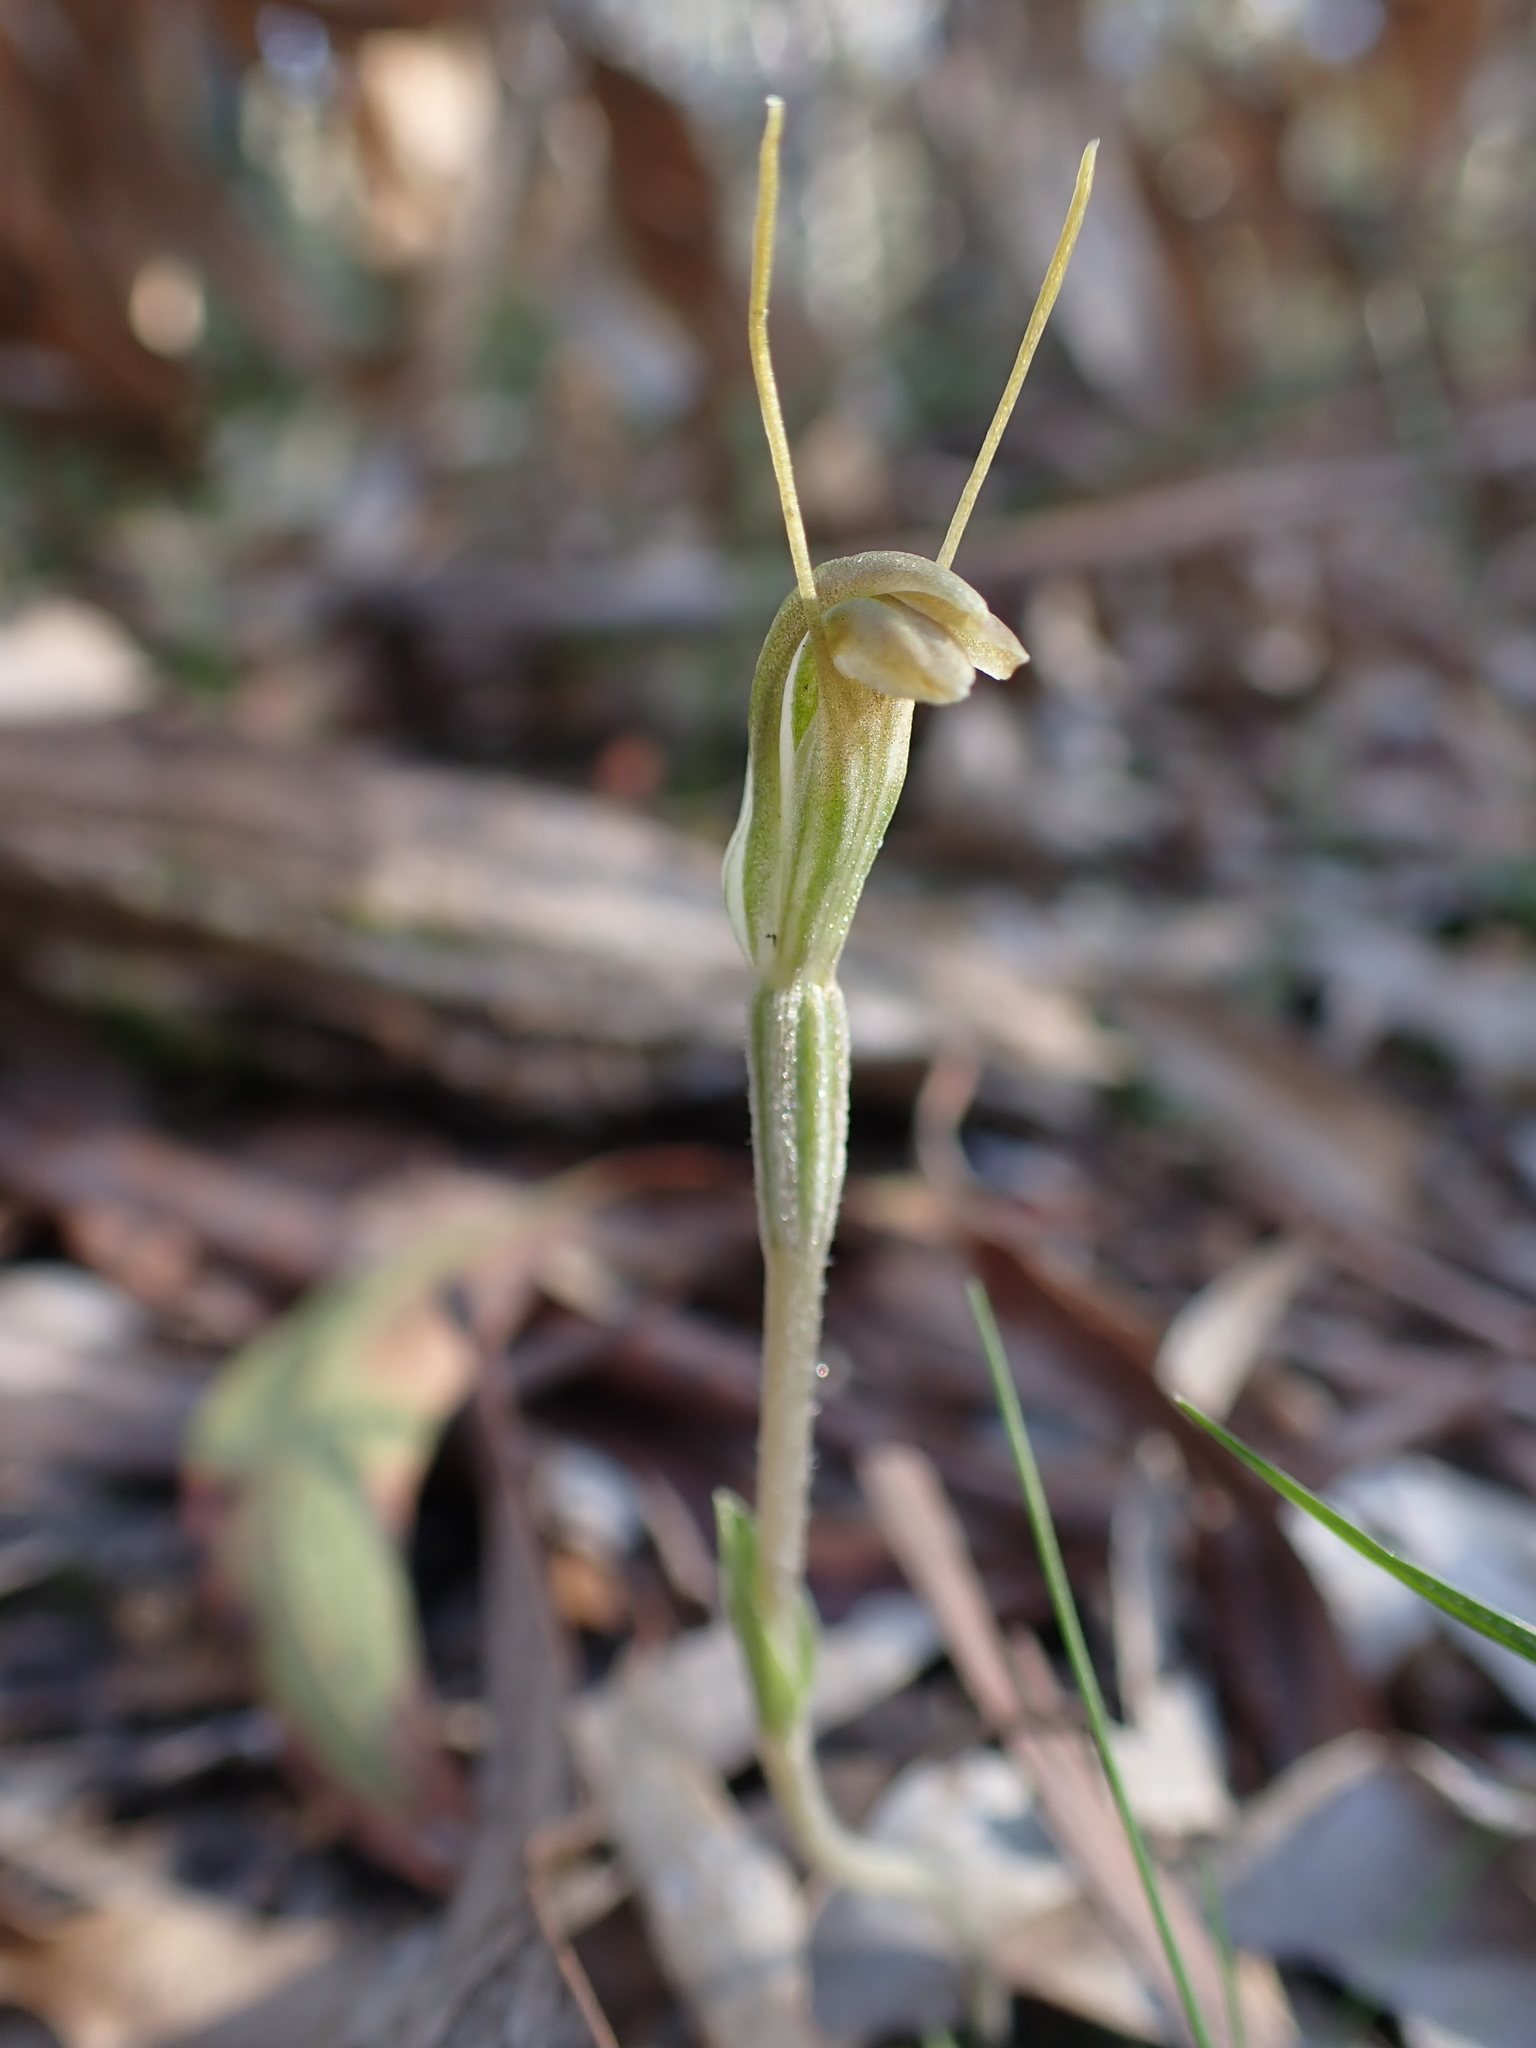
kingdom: Plantae
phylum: Tracheophyta
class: Liliopsida
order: Asparagales
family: Orchidaceae
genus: Pterostylis
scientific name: Pterostylis nana
